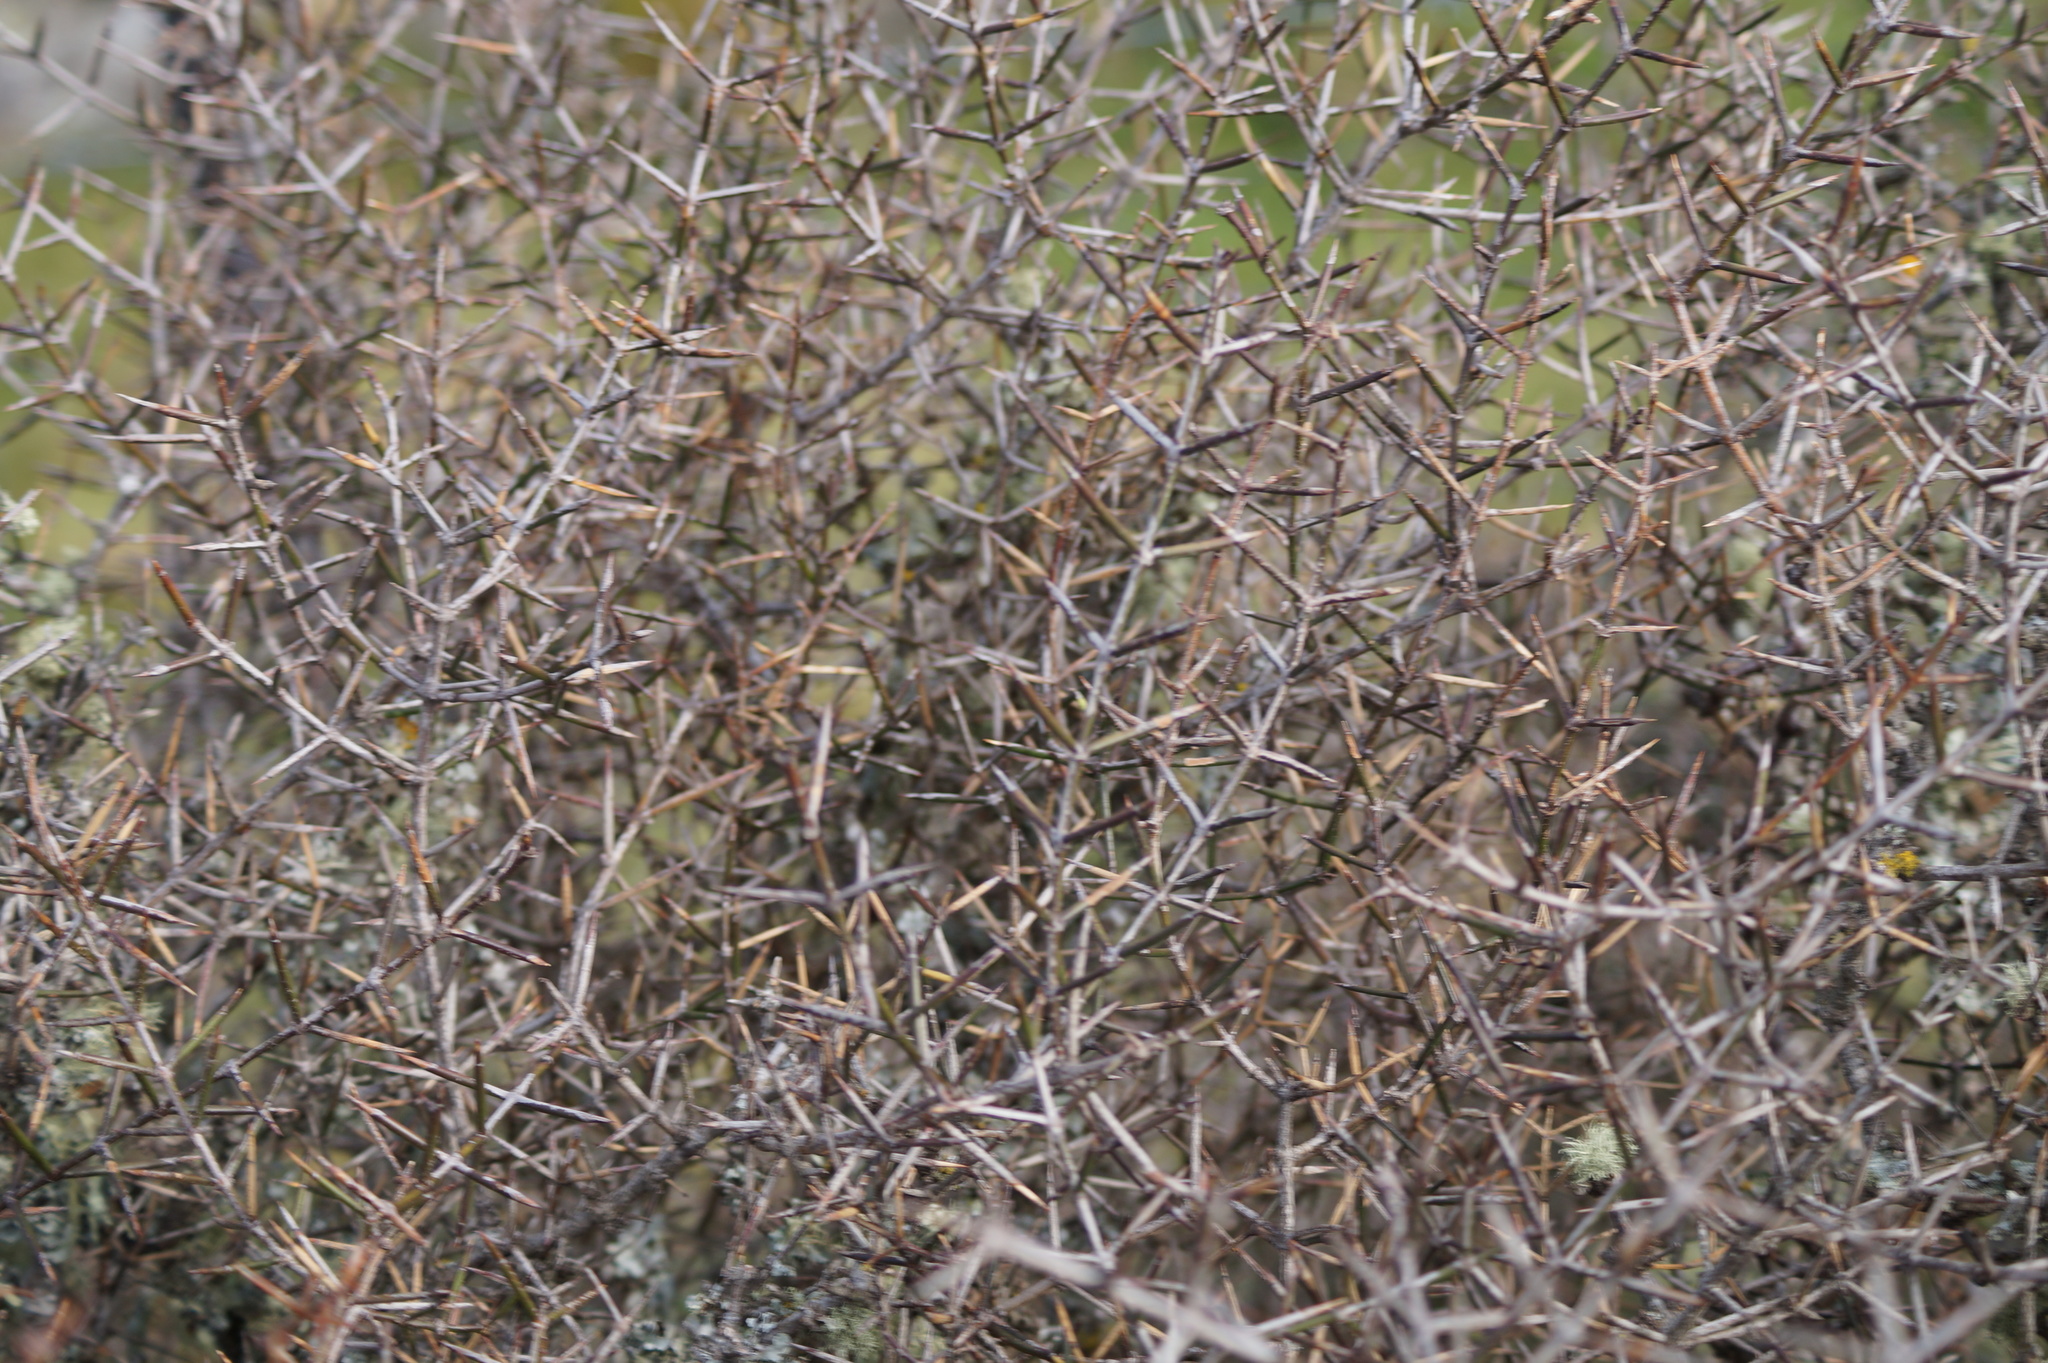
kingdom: Plantae
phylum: Tracheophyta
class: Magnoliopsida
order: Rosales
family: Rhamnaceae
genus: Discaria
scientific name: Discaria toumatou
